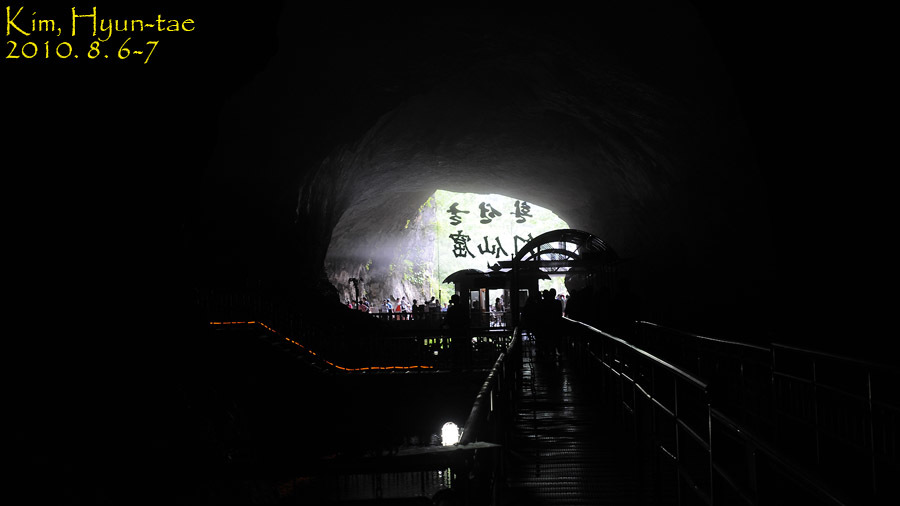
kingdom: Animalia
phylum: Chordata
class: Amphibia
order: Caudata
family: Hynobiidae
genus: Onychodactylus
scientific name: Onychodactylus koreanus
